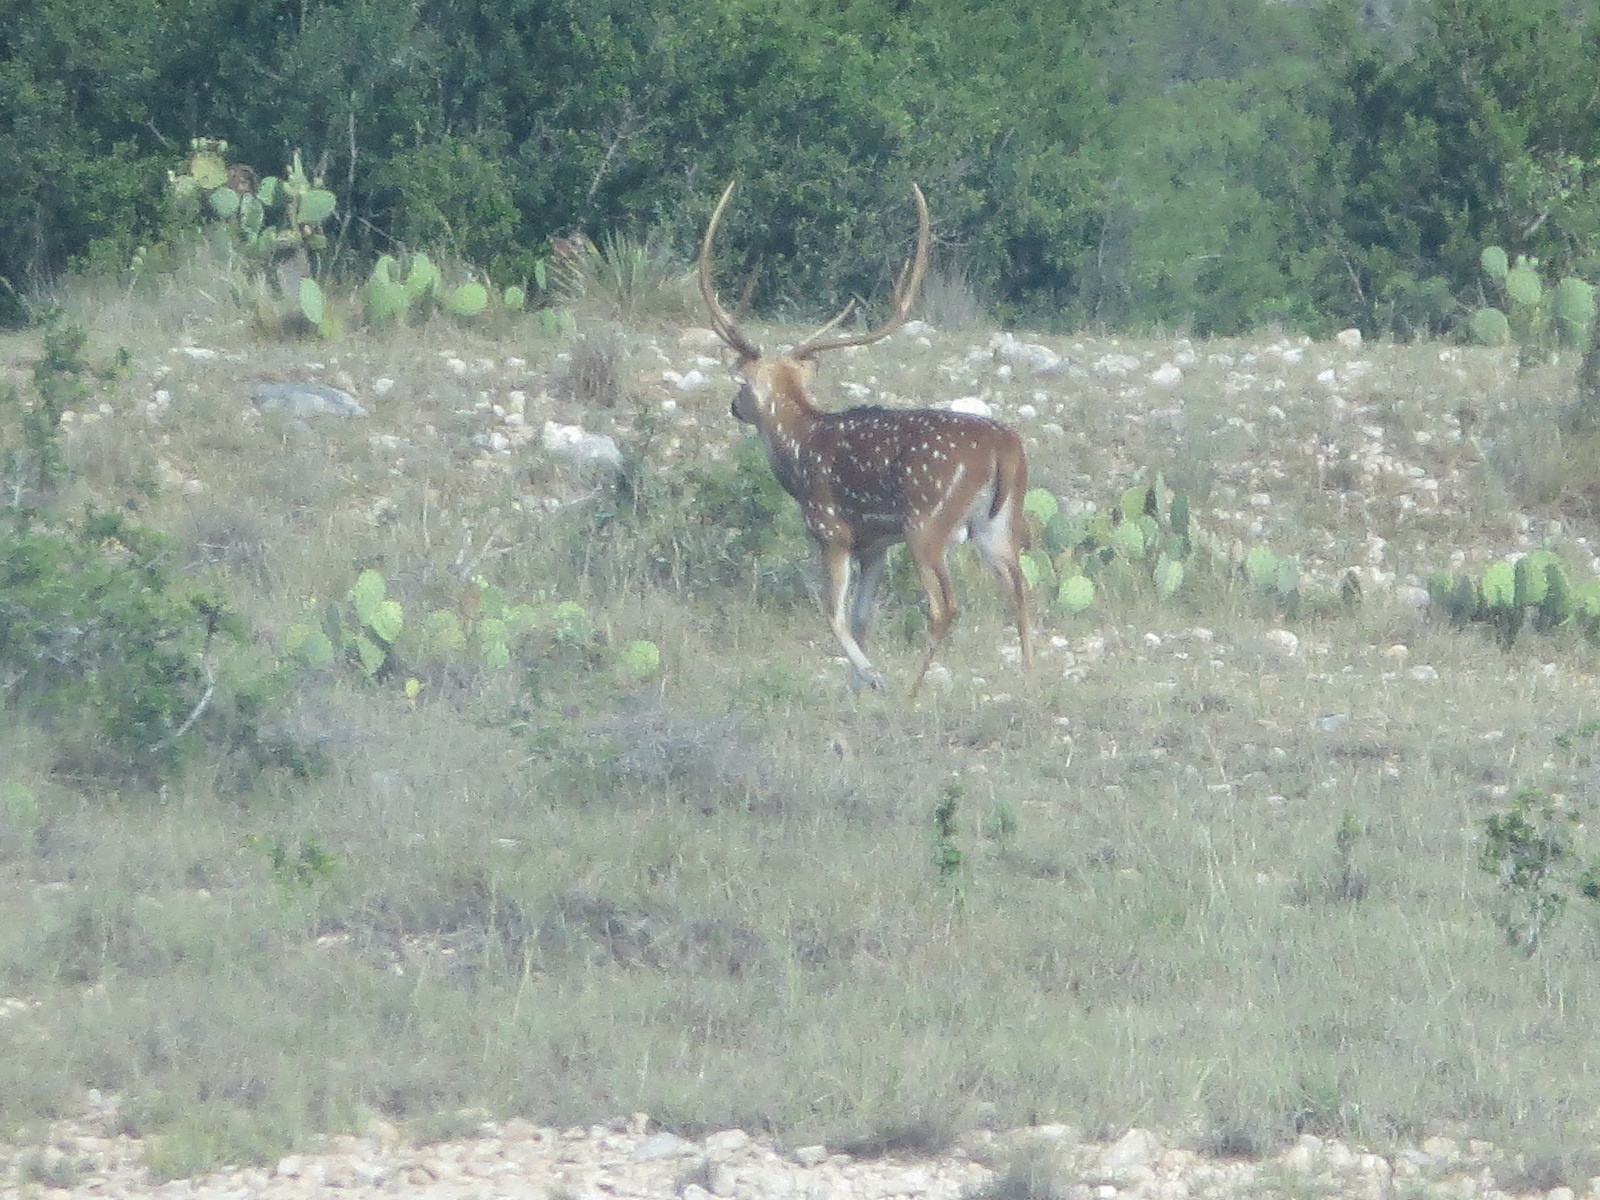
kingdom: Animalia
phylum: Chordata
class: Mammalia
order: Artiodactyla
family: Cervidae
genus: Axis
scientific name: Axis axis
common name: Chital
